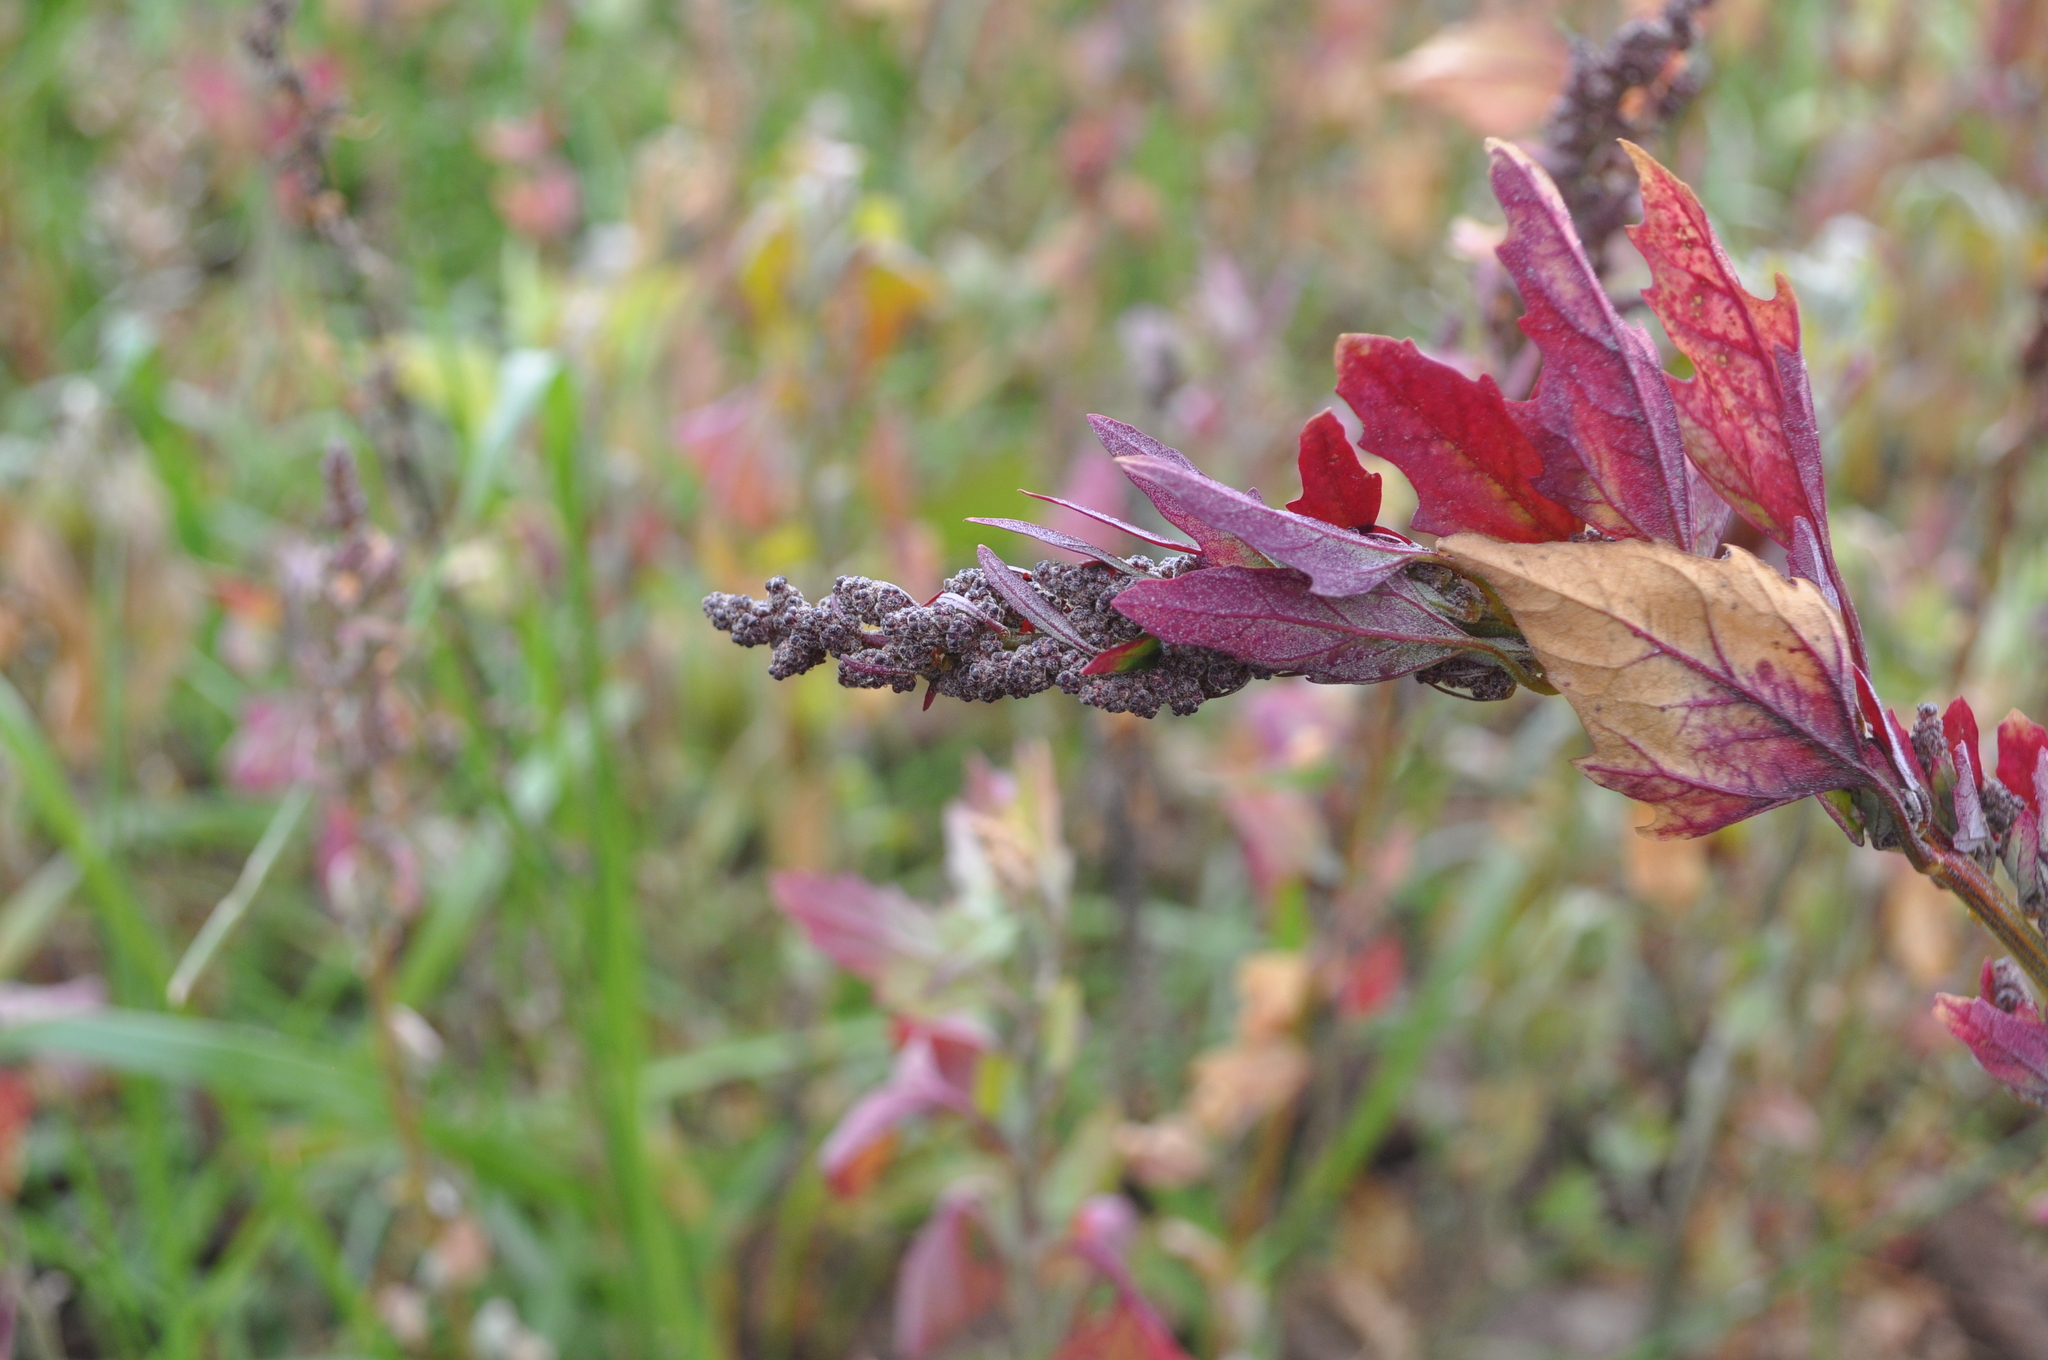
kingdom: Plantae
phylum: Tracheophyta
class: Magnoliopsida
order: Caryophyllales
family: Amaranthaceae
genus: Chenopodium
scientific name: Chenopodium album
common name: Fat-hen
